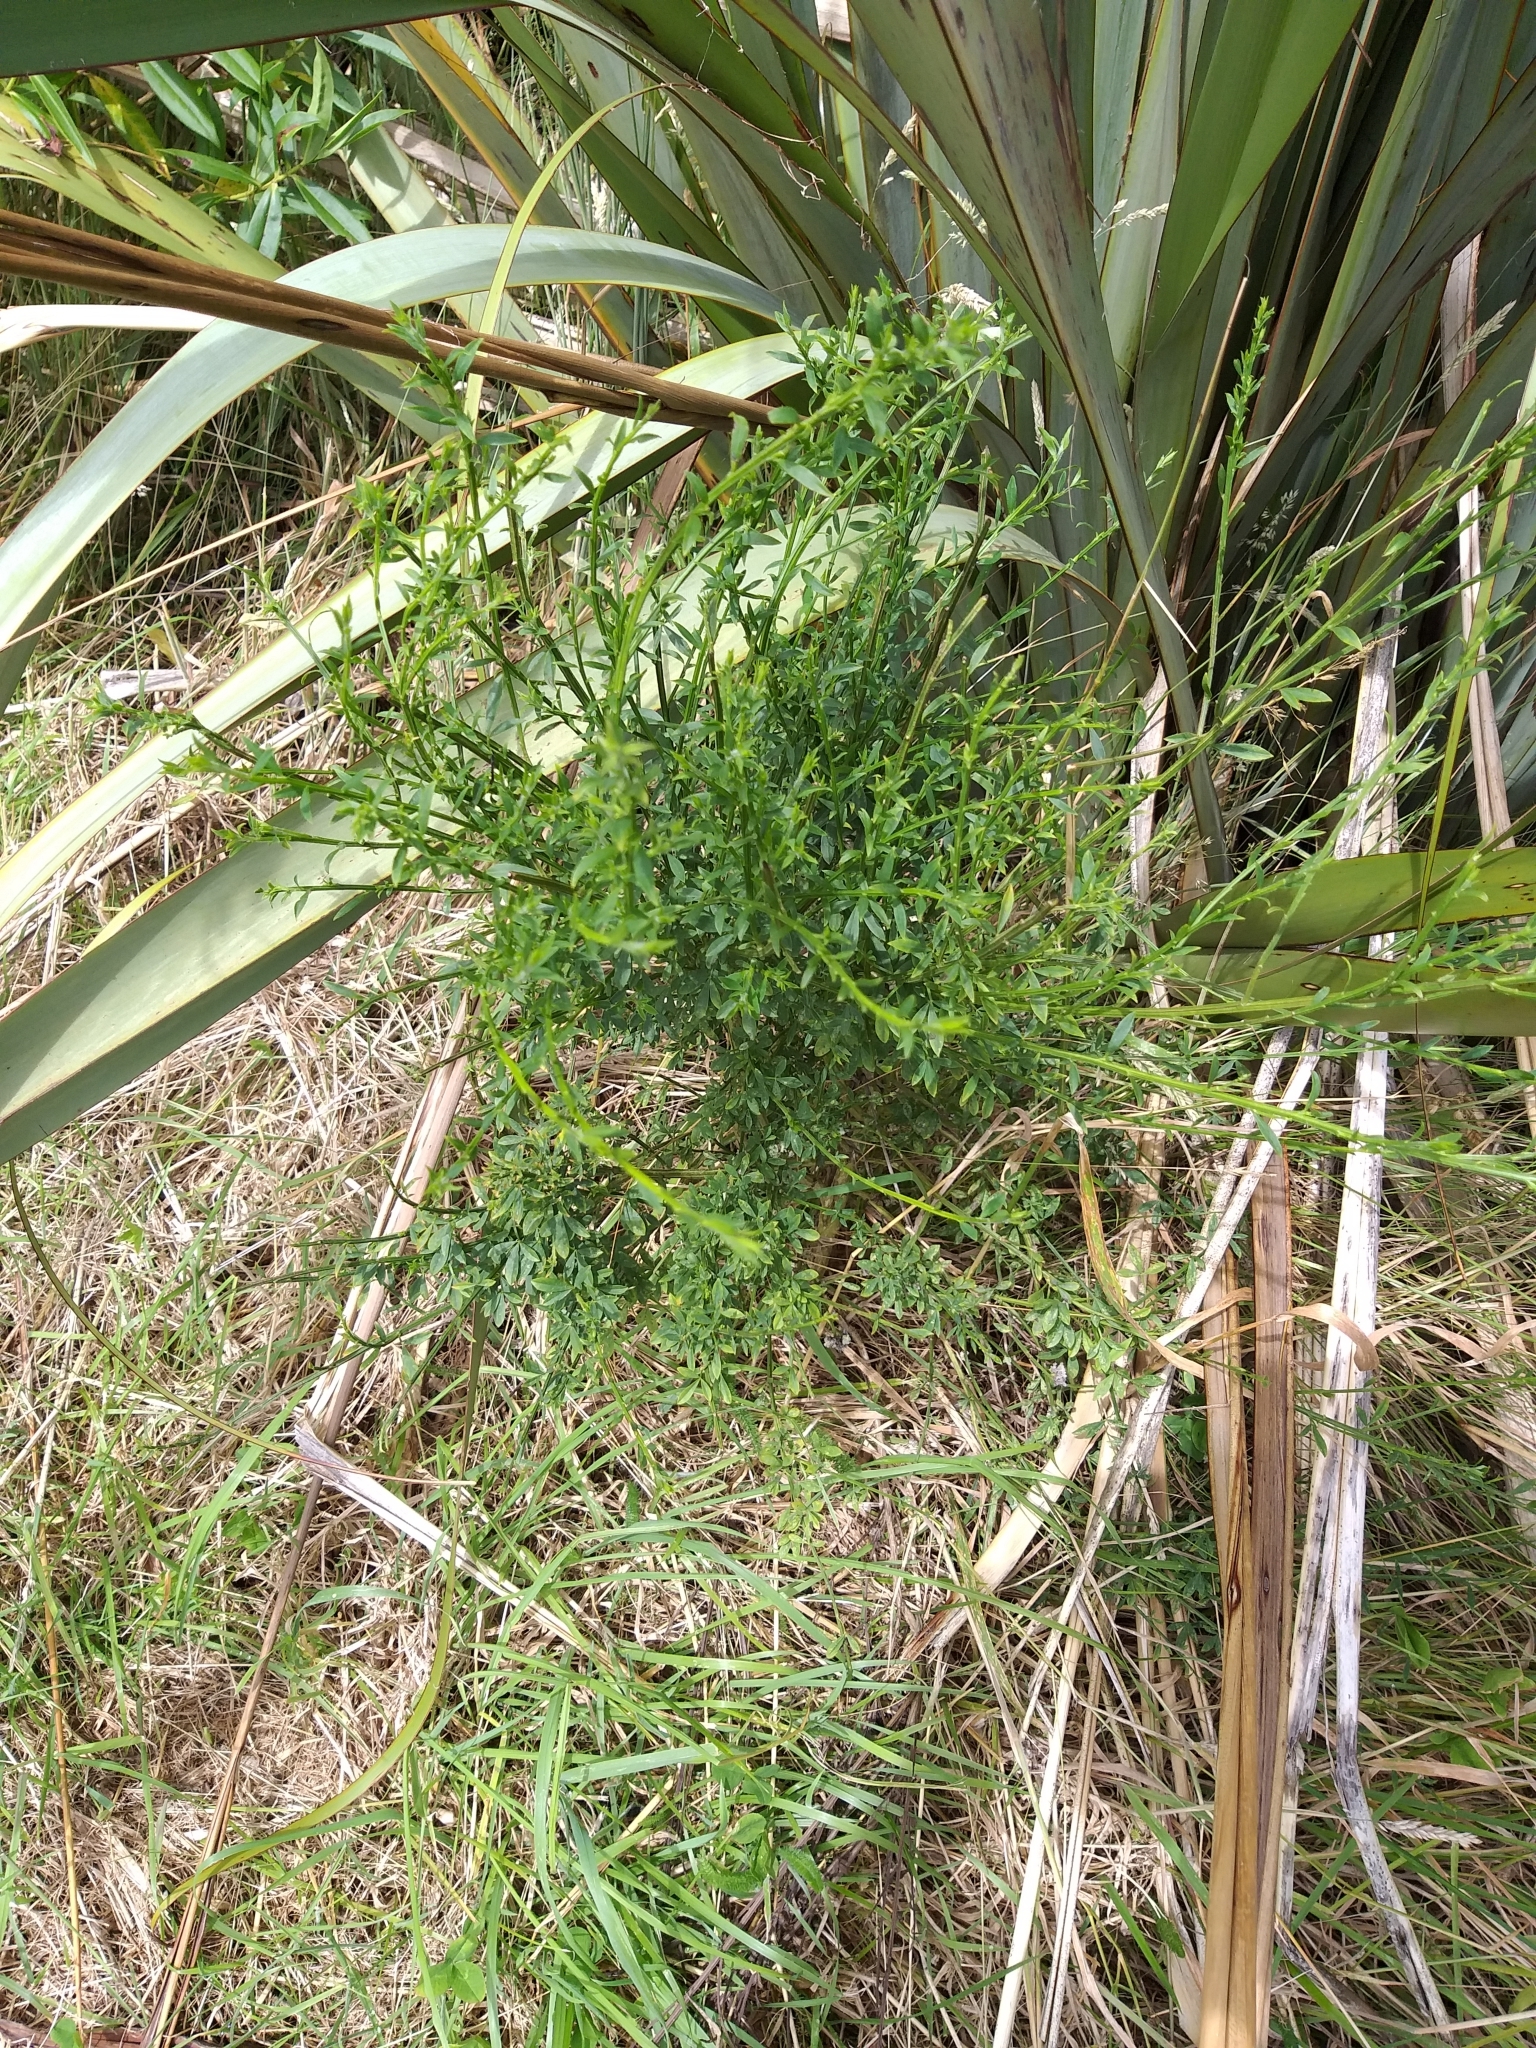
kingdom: Plantae
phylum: Tracheophyta
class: Magnoliopsida
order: Fabales
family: Fabaceae
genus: Cytisus
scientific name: Cytisus scoparius
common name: Scotch broom
